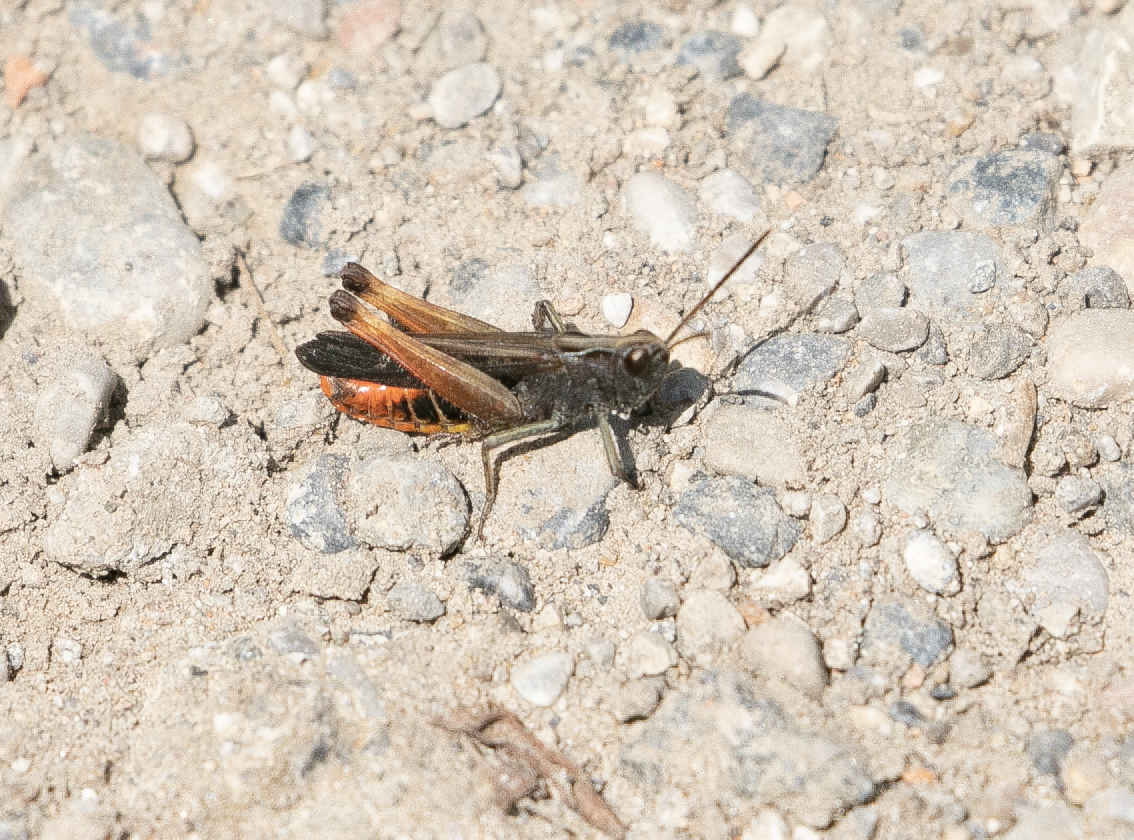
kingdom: Animalia
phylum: Arthropoda
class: Insecta
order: Orthoptera
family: Acrididae
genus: Omocestus
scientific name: Omocestus rufipes
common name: Woodland grasshopper
